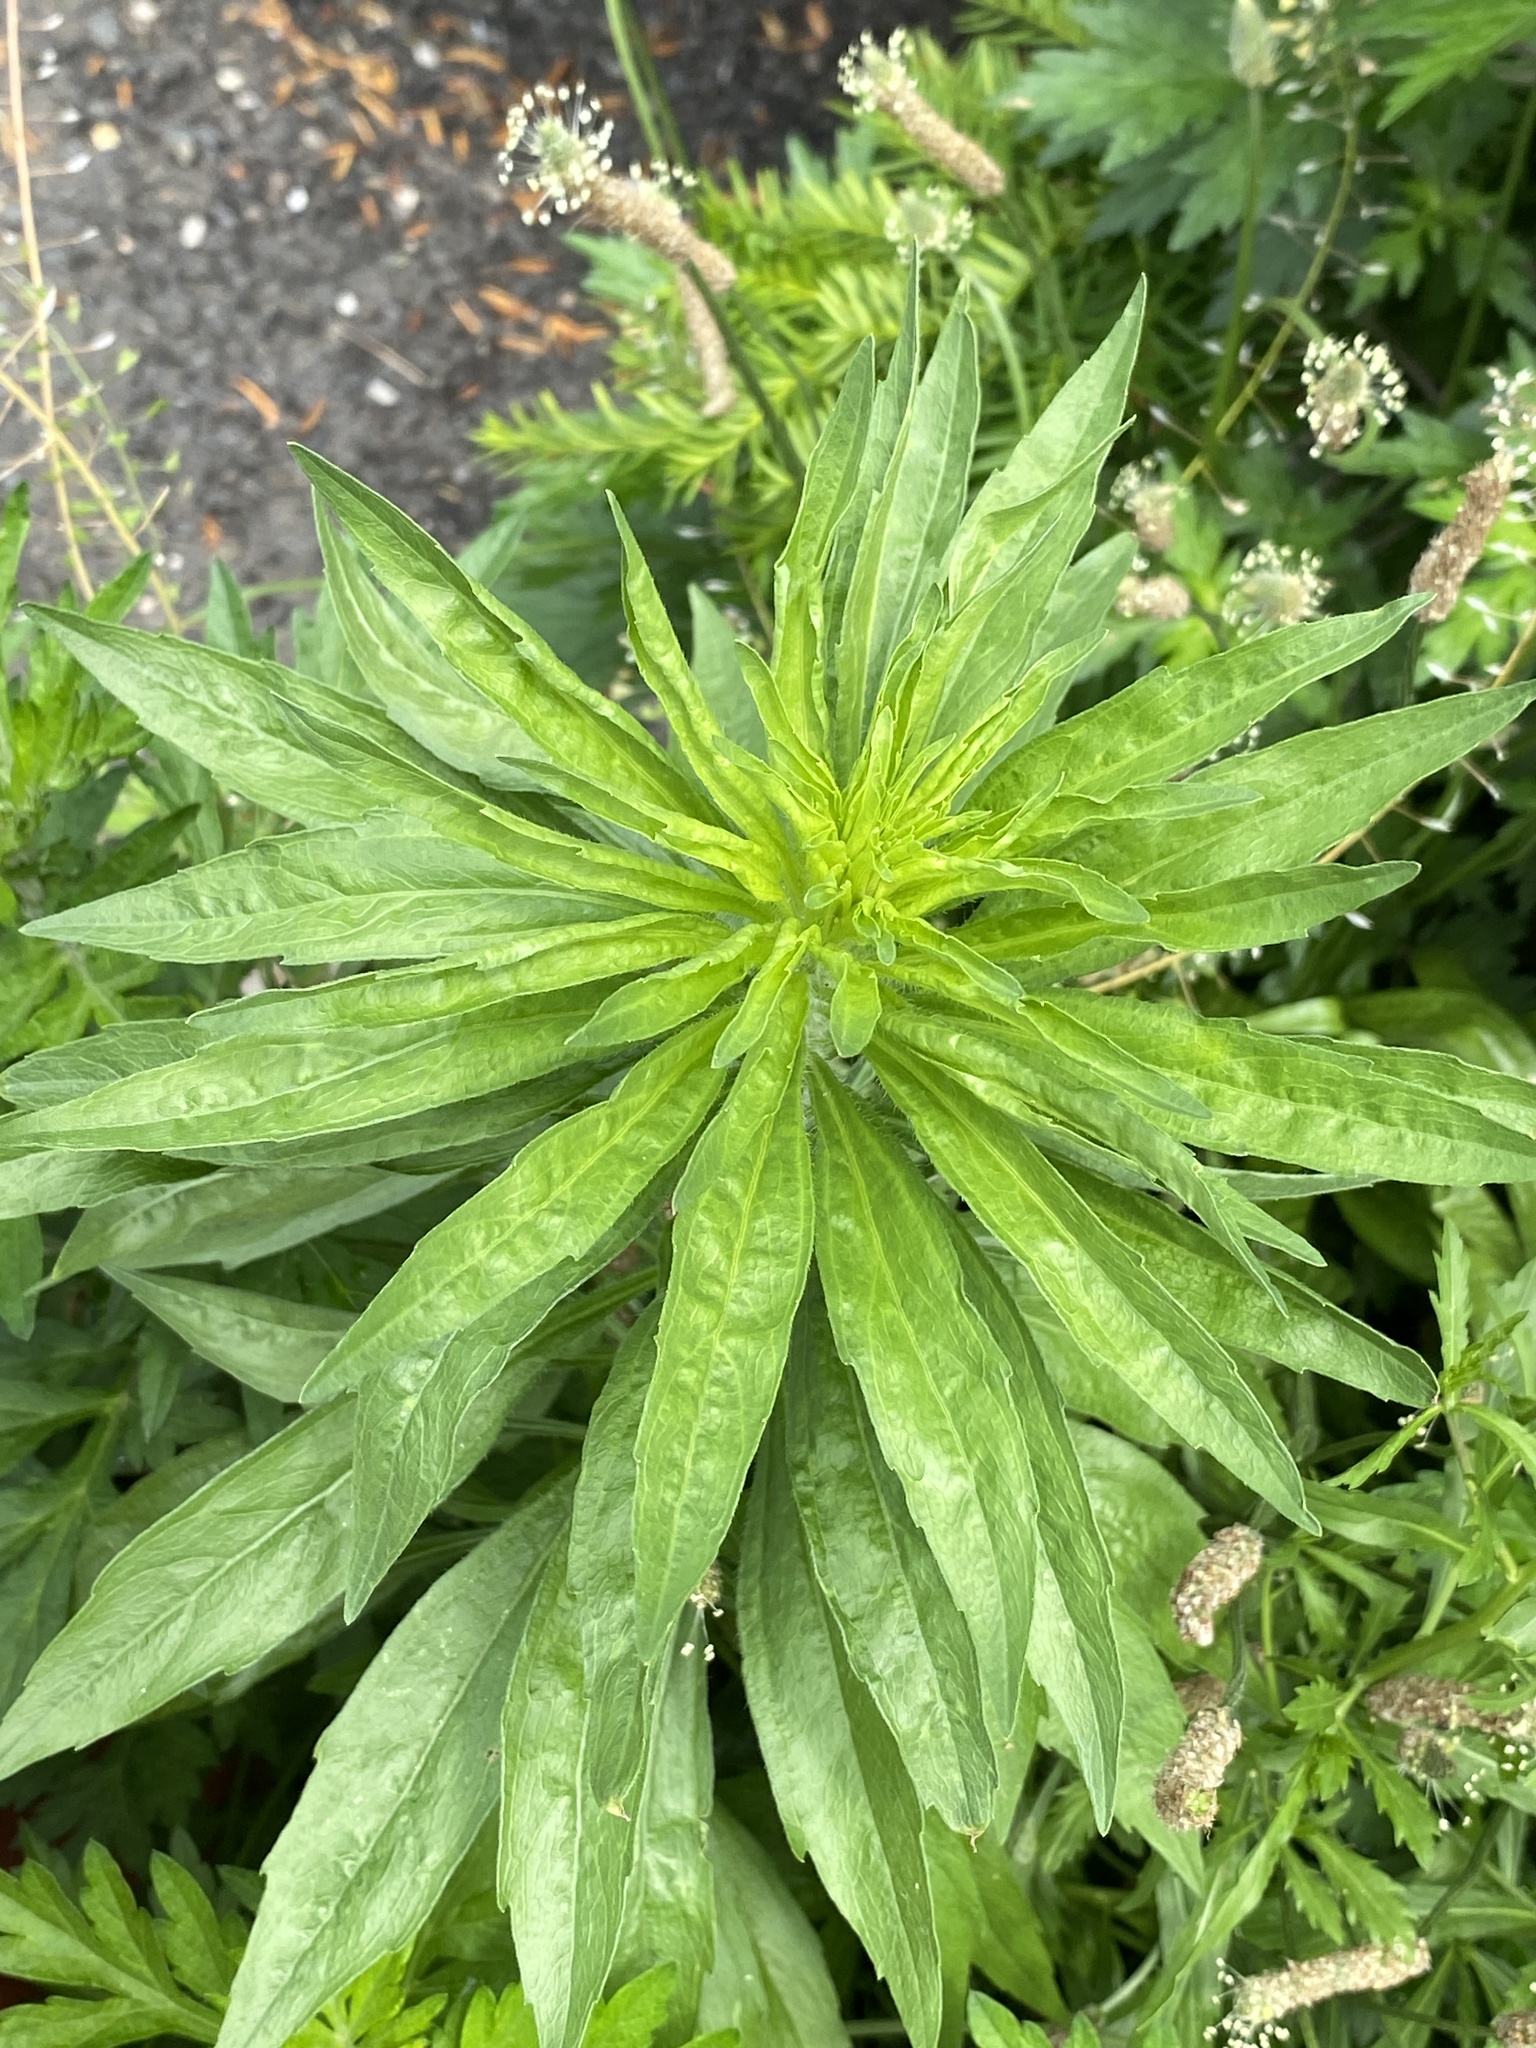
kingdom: Plantae
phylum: Tracheophyta
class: Magnoliopsida
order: Asterales
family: Asteraceae
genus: Erigeron
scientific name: Erigeron canadensis
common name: Canadian fleabane
